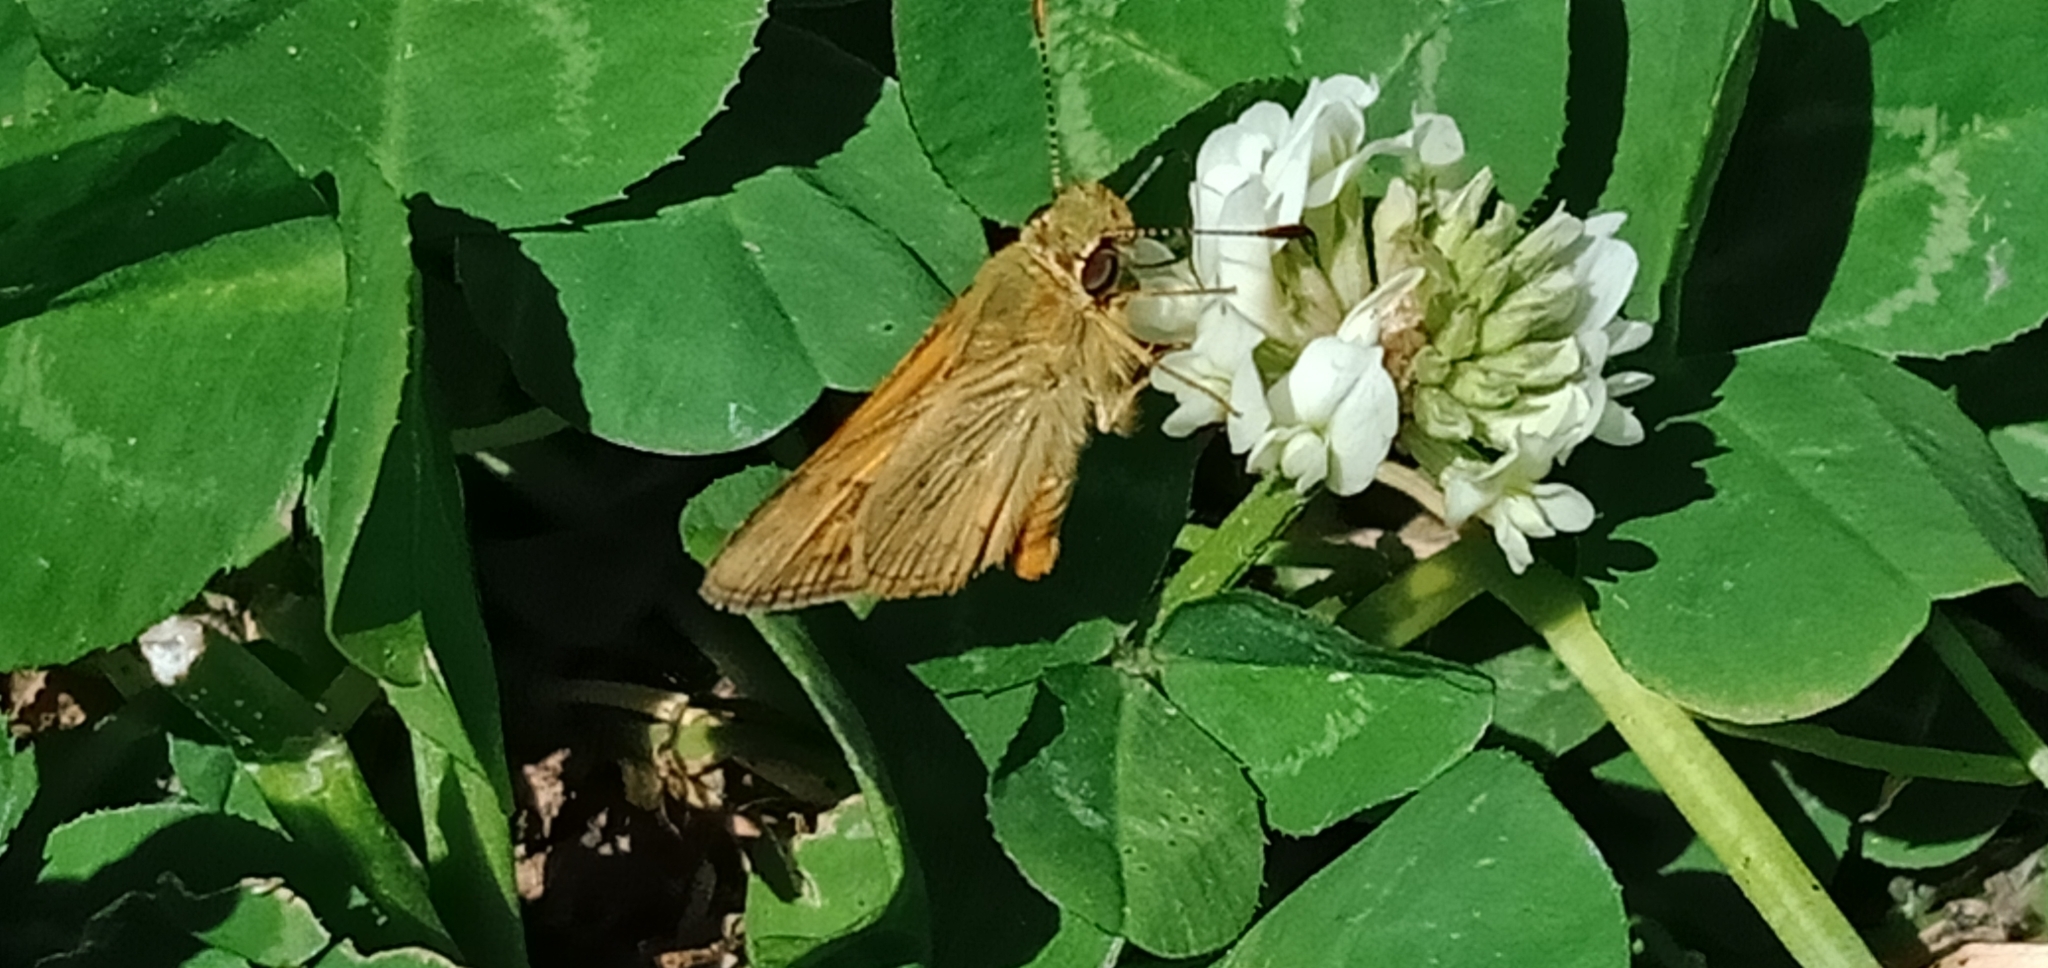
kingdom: Animalia
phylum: Arthropoda
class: Insecta
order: Lepidoptera
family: Hesperiidae
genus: Ocybadistes
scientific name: Ocybadistes walkeri
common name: Yellow-banded dart
